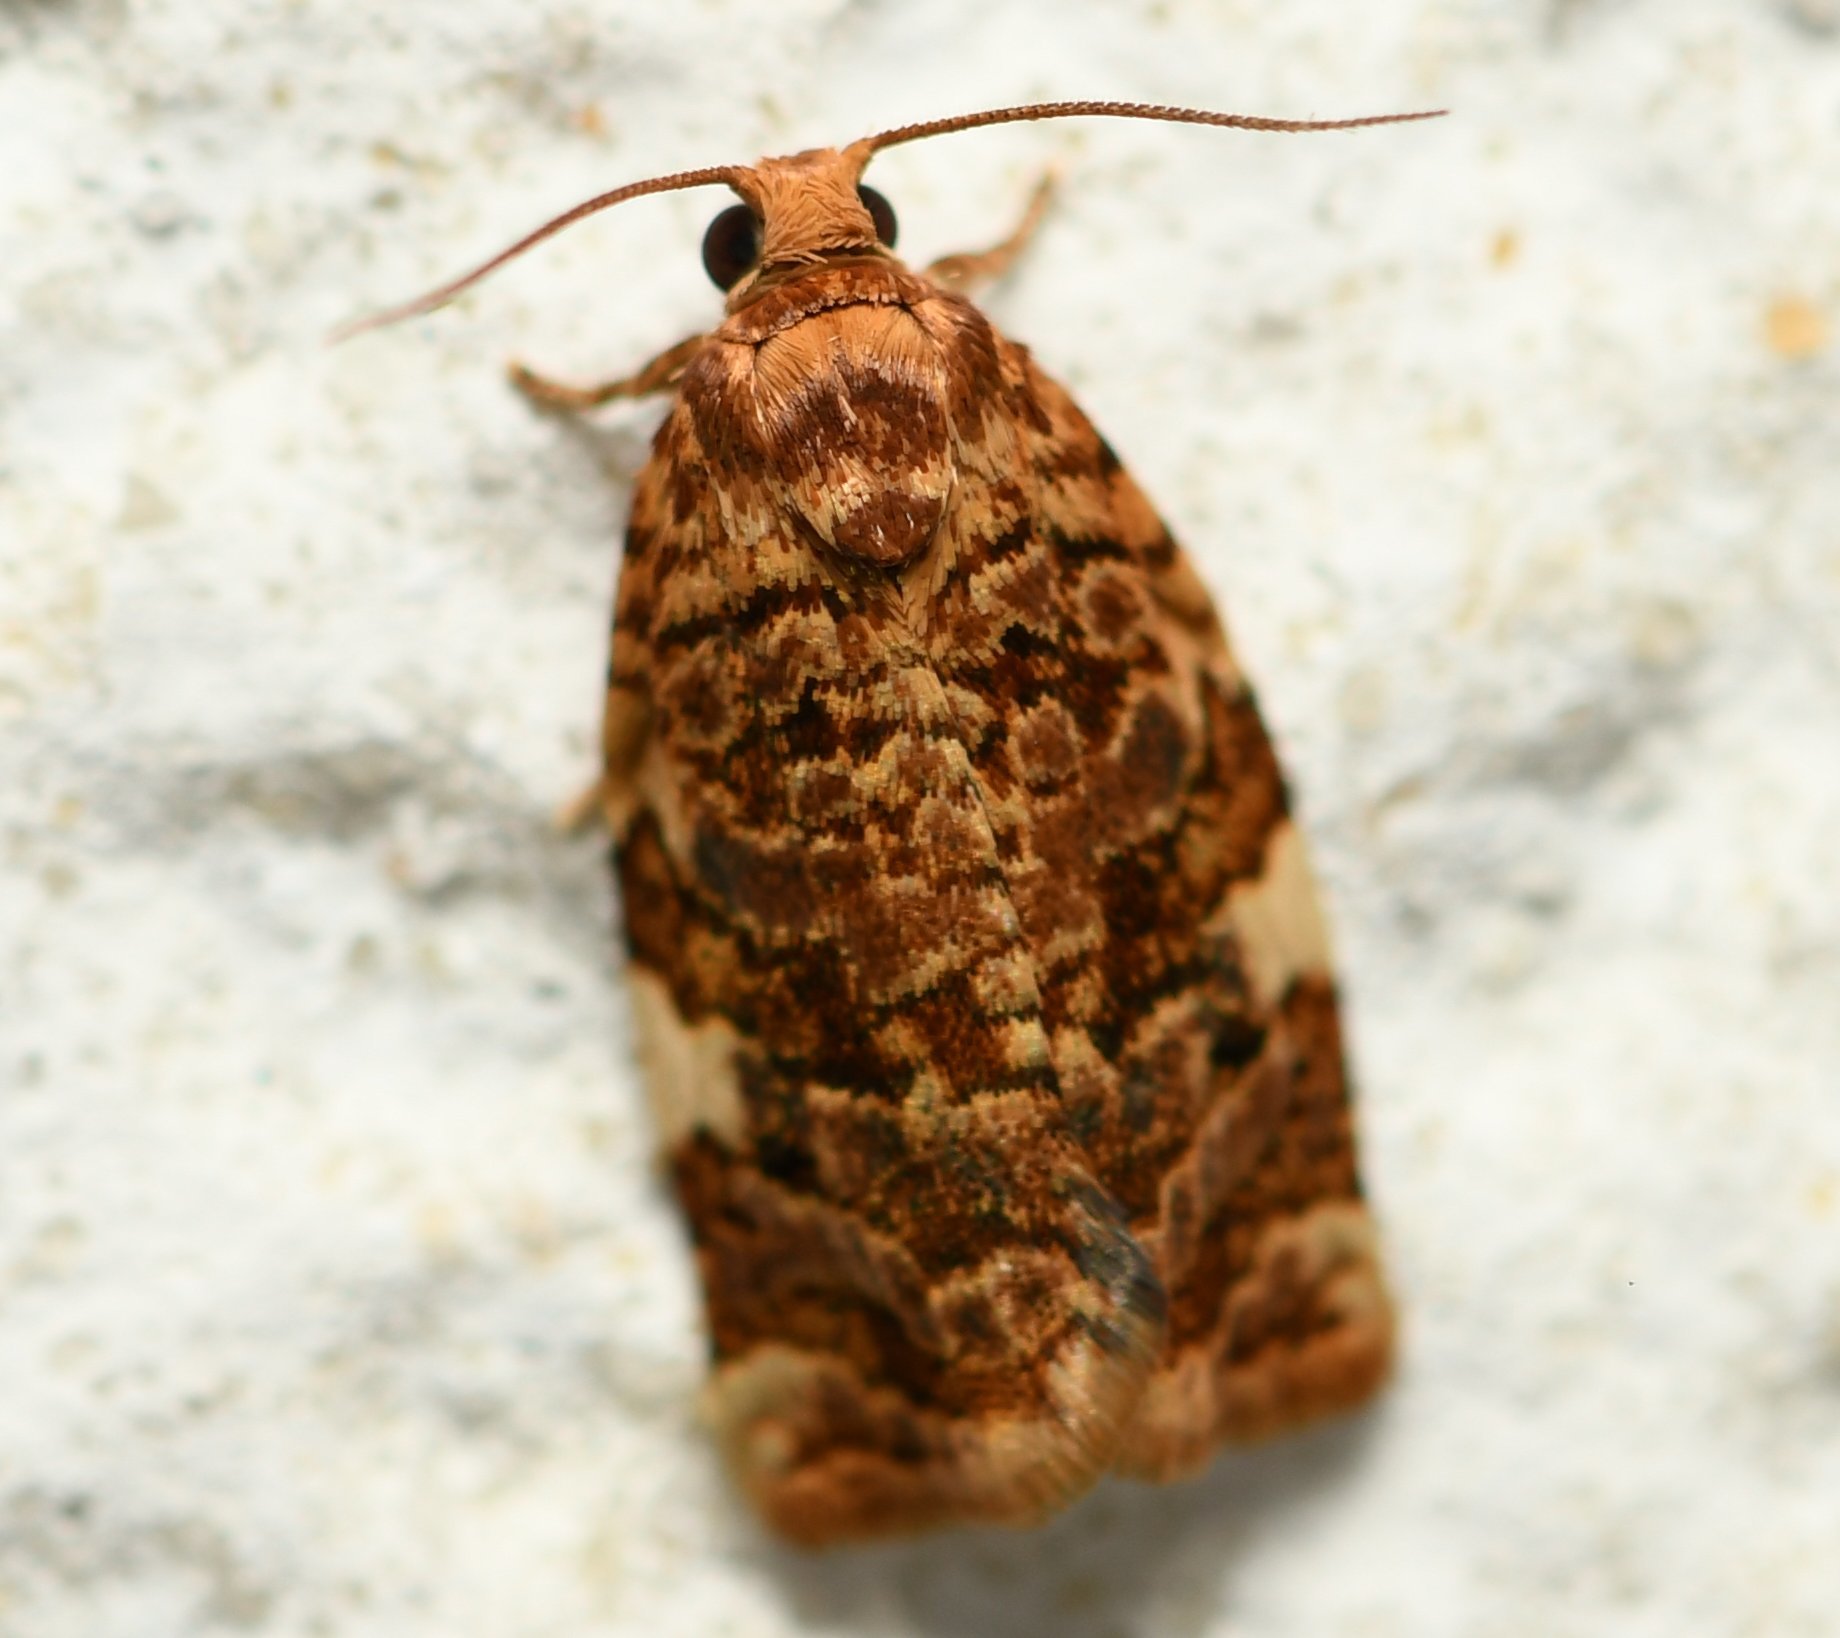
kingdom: Animalia
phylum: Arthropoda
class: Insecta
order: Lepidoptera
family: Tortricidae
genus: Archips
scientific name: Archips argyrospila
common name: Fruit-tree leafroller moth
